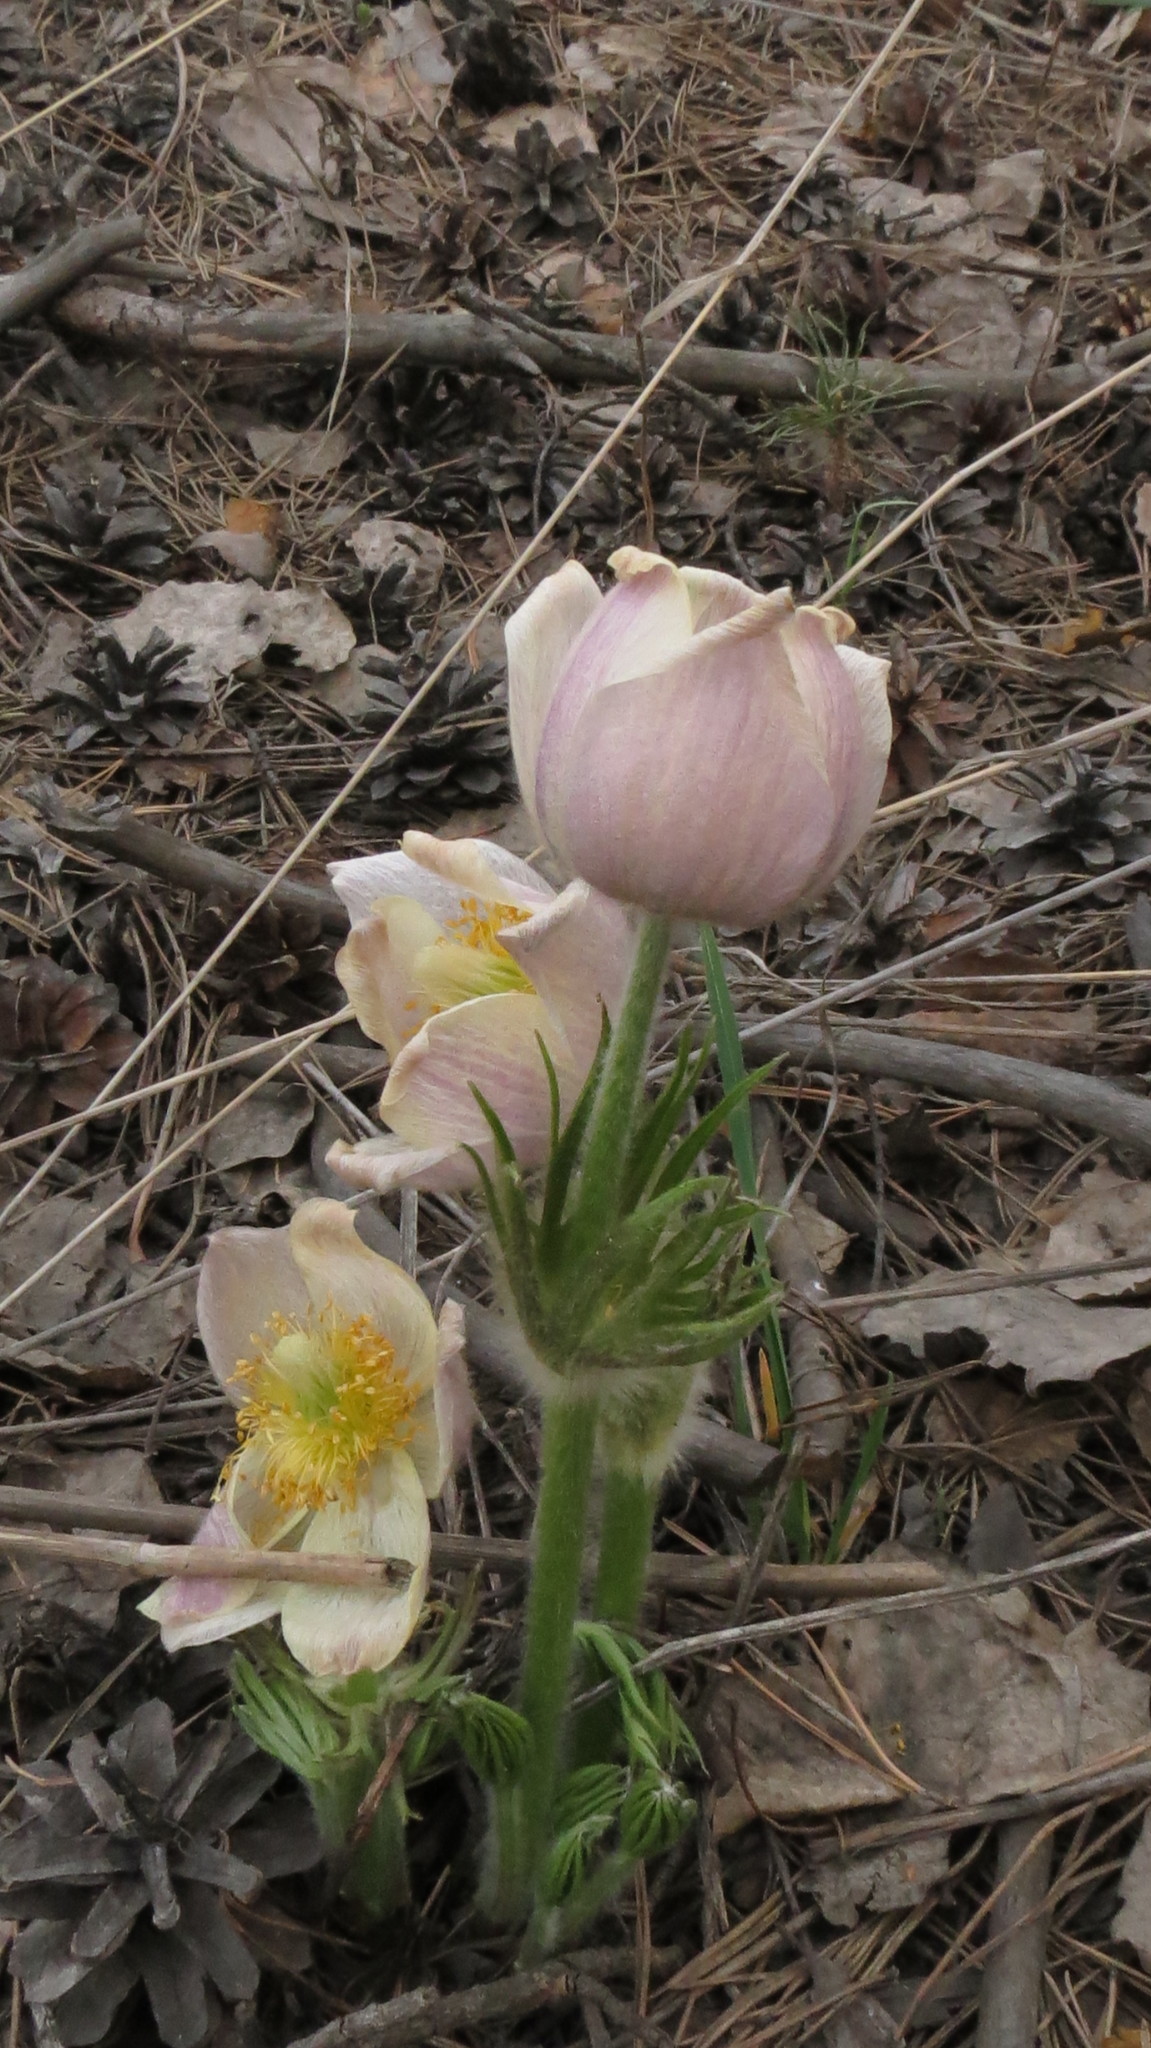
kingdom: Plantae
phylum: Tracheophyta
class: Magnoliopsida
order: Ranunculales
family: Ranunculaceae
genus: Pulsatilla
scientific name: Pulsatilla patens
